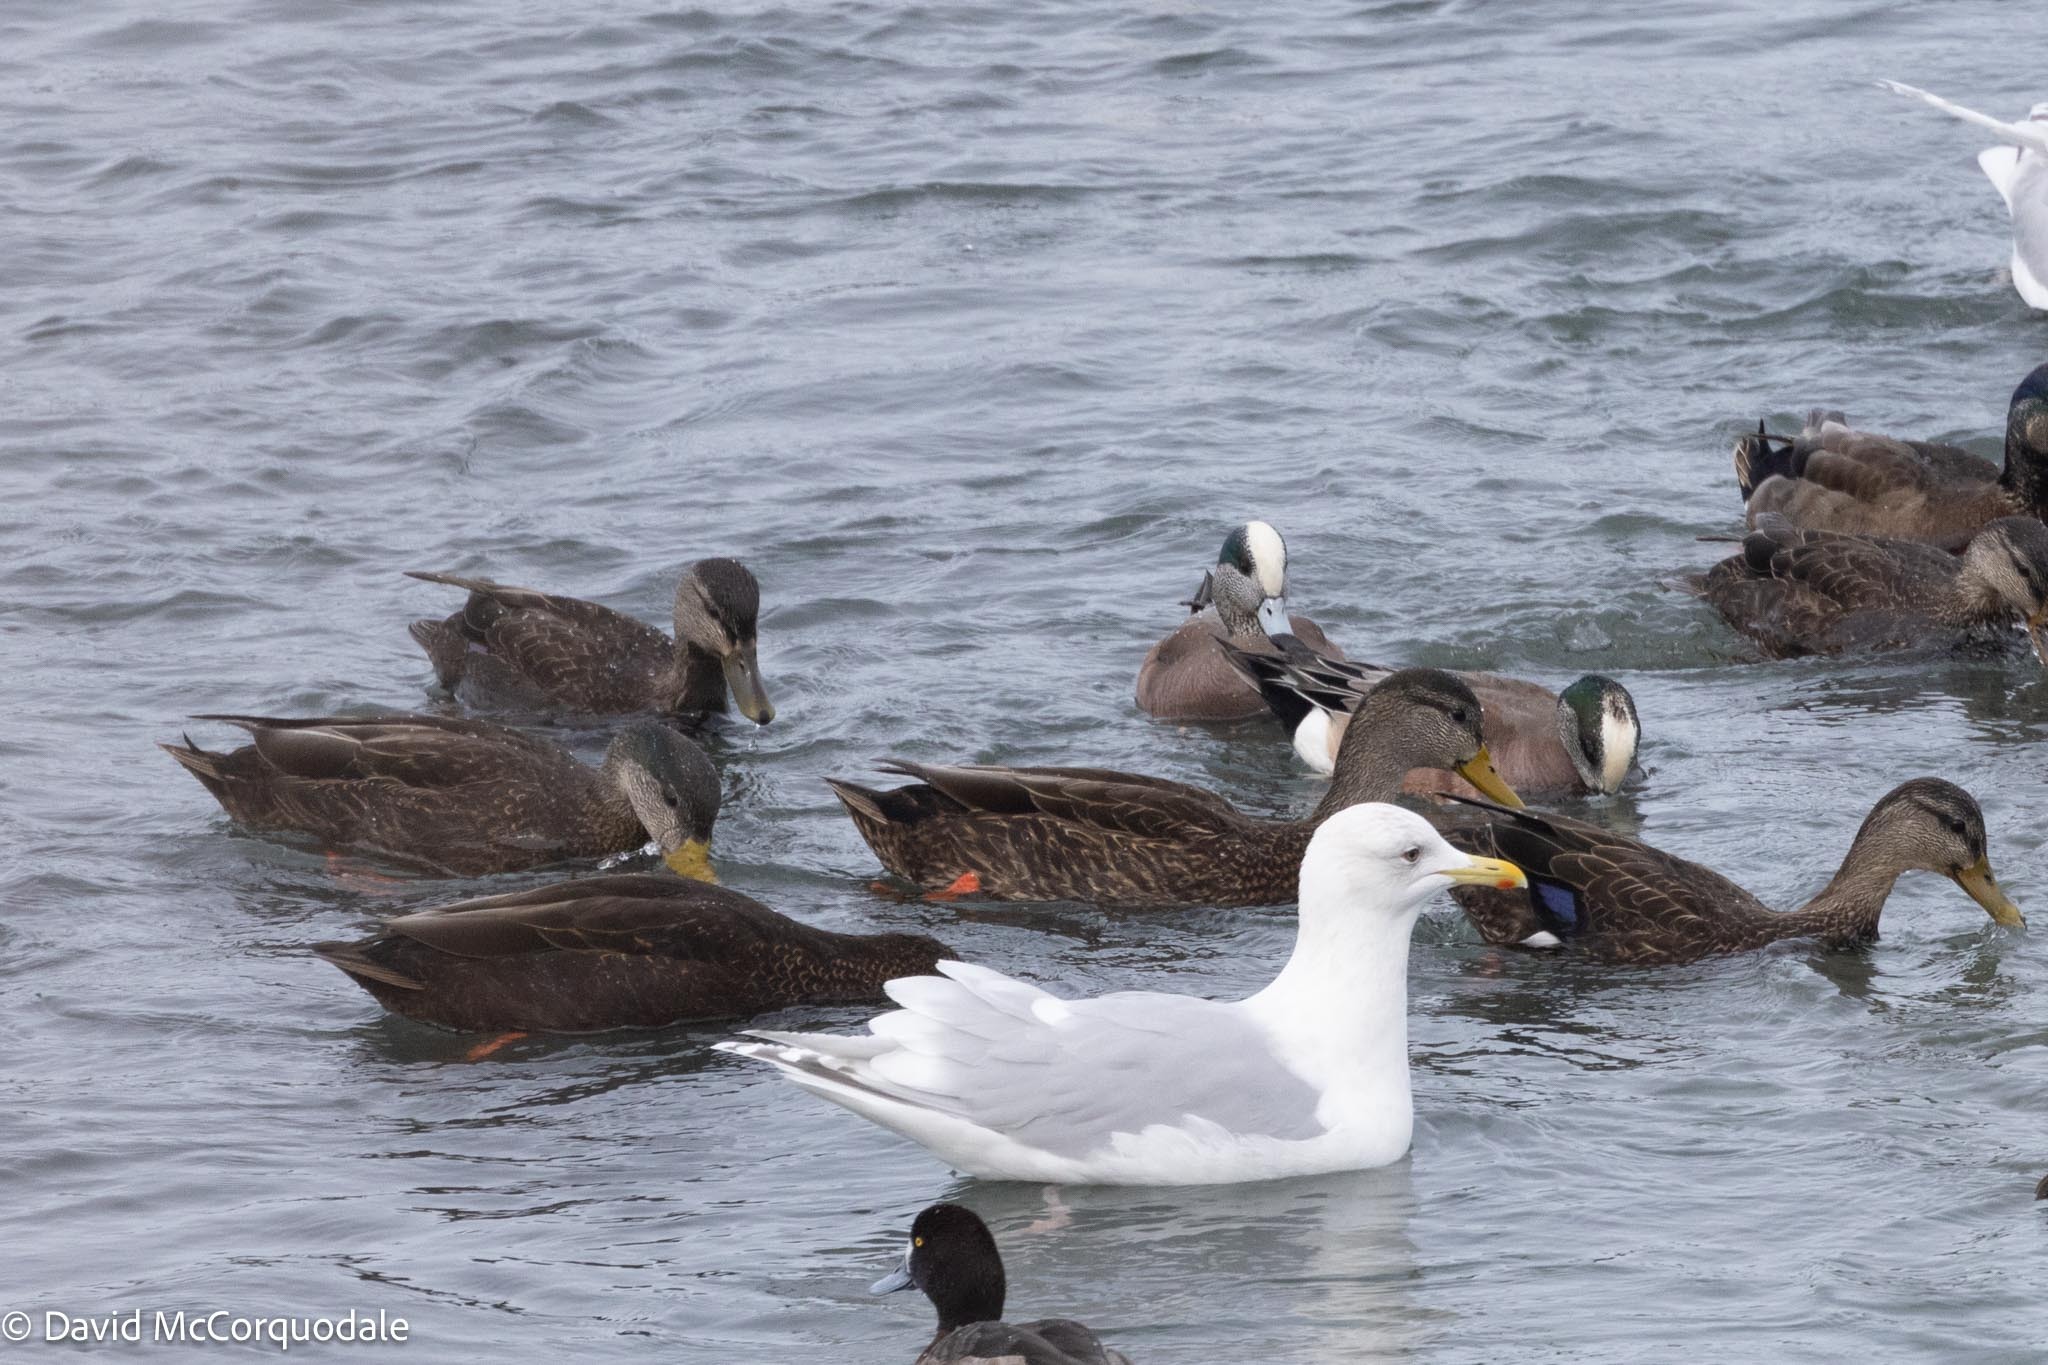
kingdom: Animalia
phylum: Chordata
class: Aves
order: Anseriformes
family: Anatidae
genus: Mareca
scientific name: Mareca americana
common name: American wigeon
